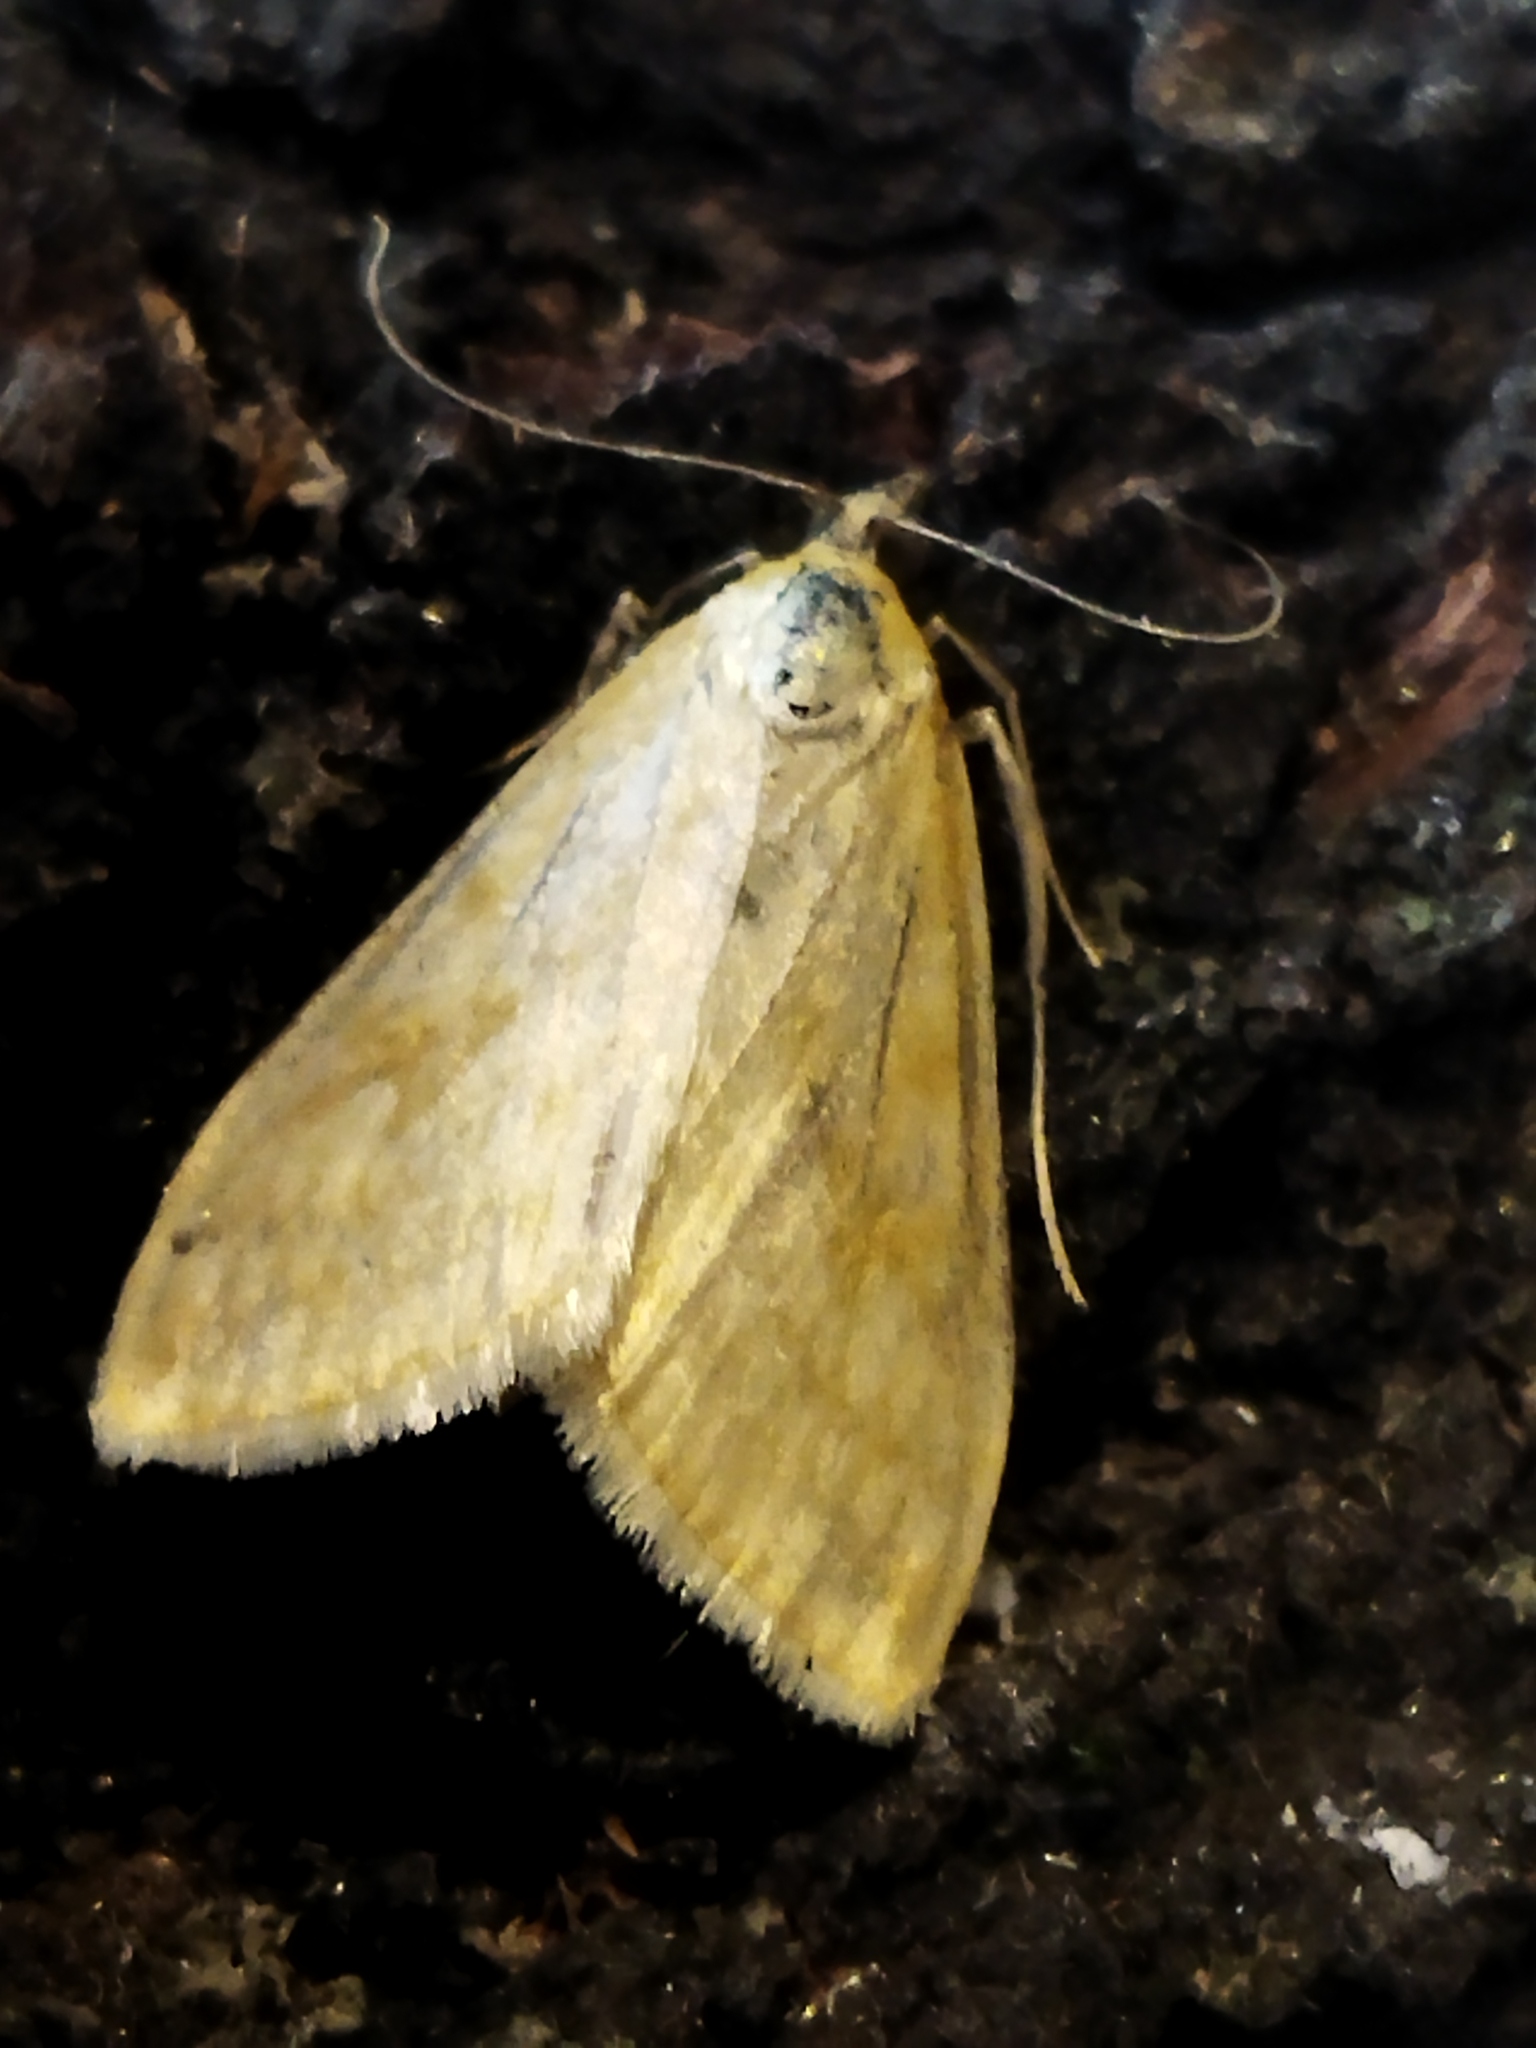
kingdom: Animalia
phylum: Arthropoda
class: Insecta
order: Lepidoptera
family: Crambidae
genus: Sitochroa
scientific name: Sitochroa verticalis
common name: Lesser pearl
